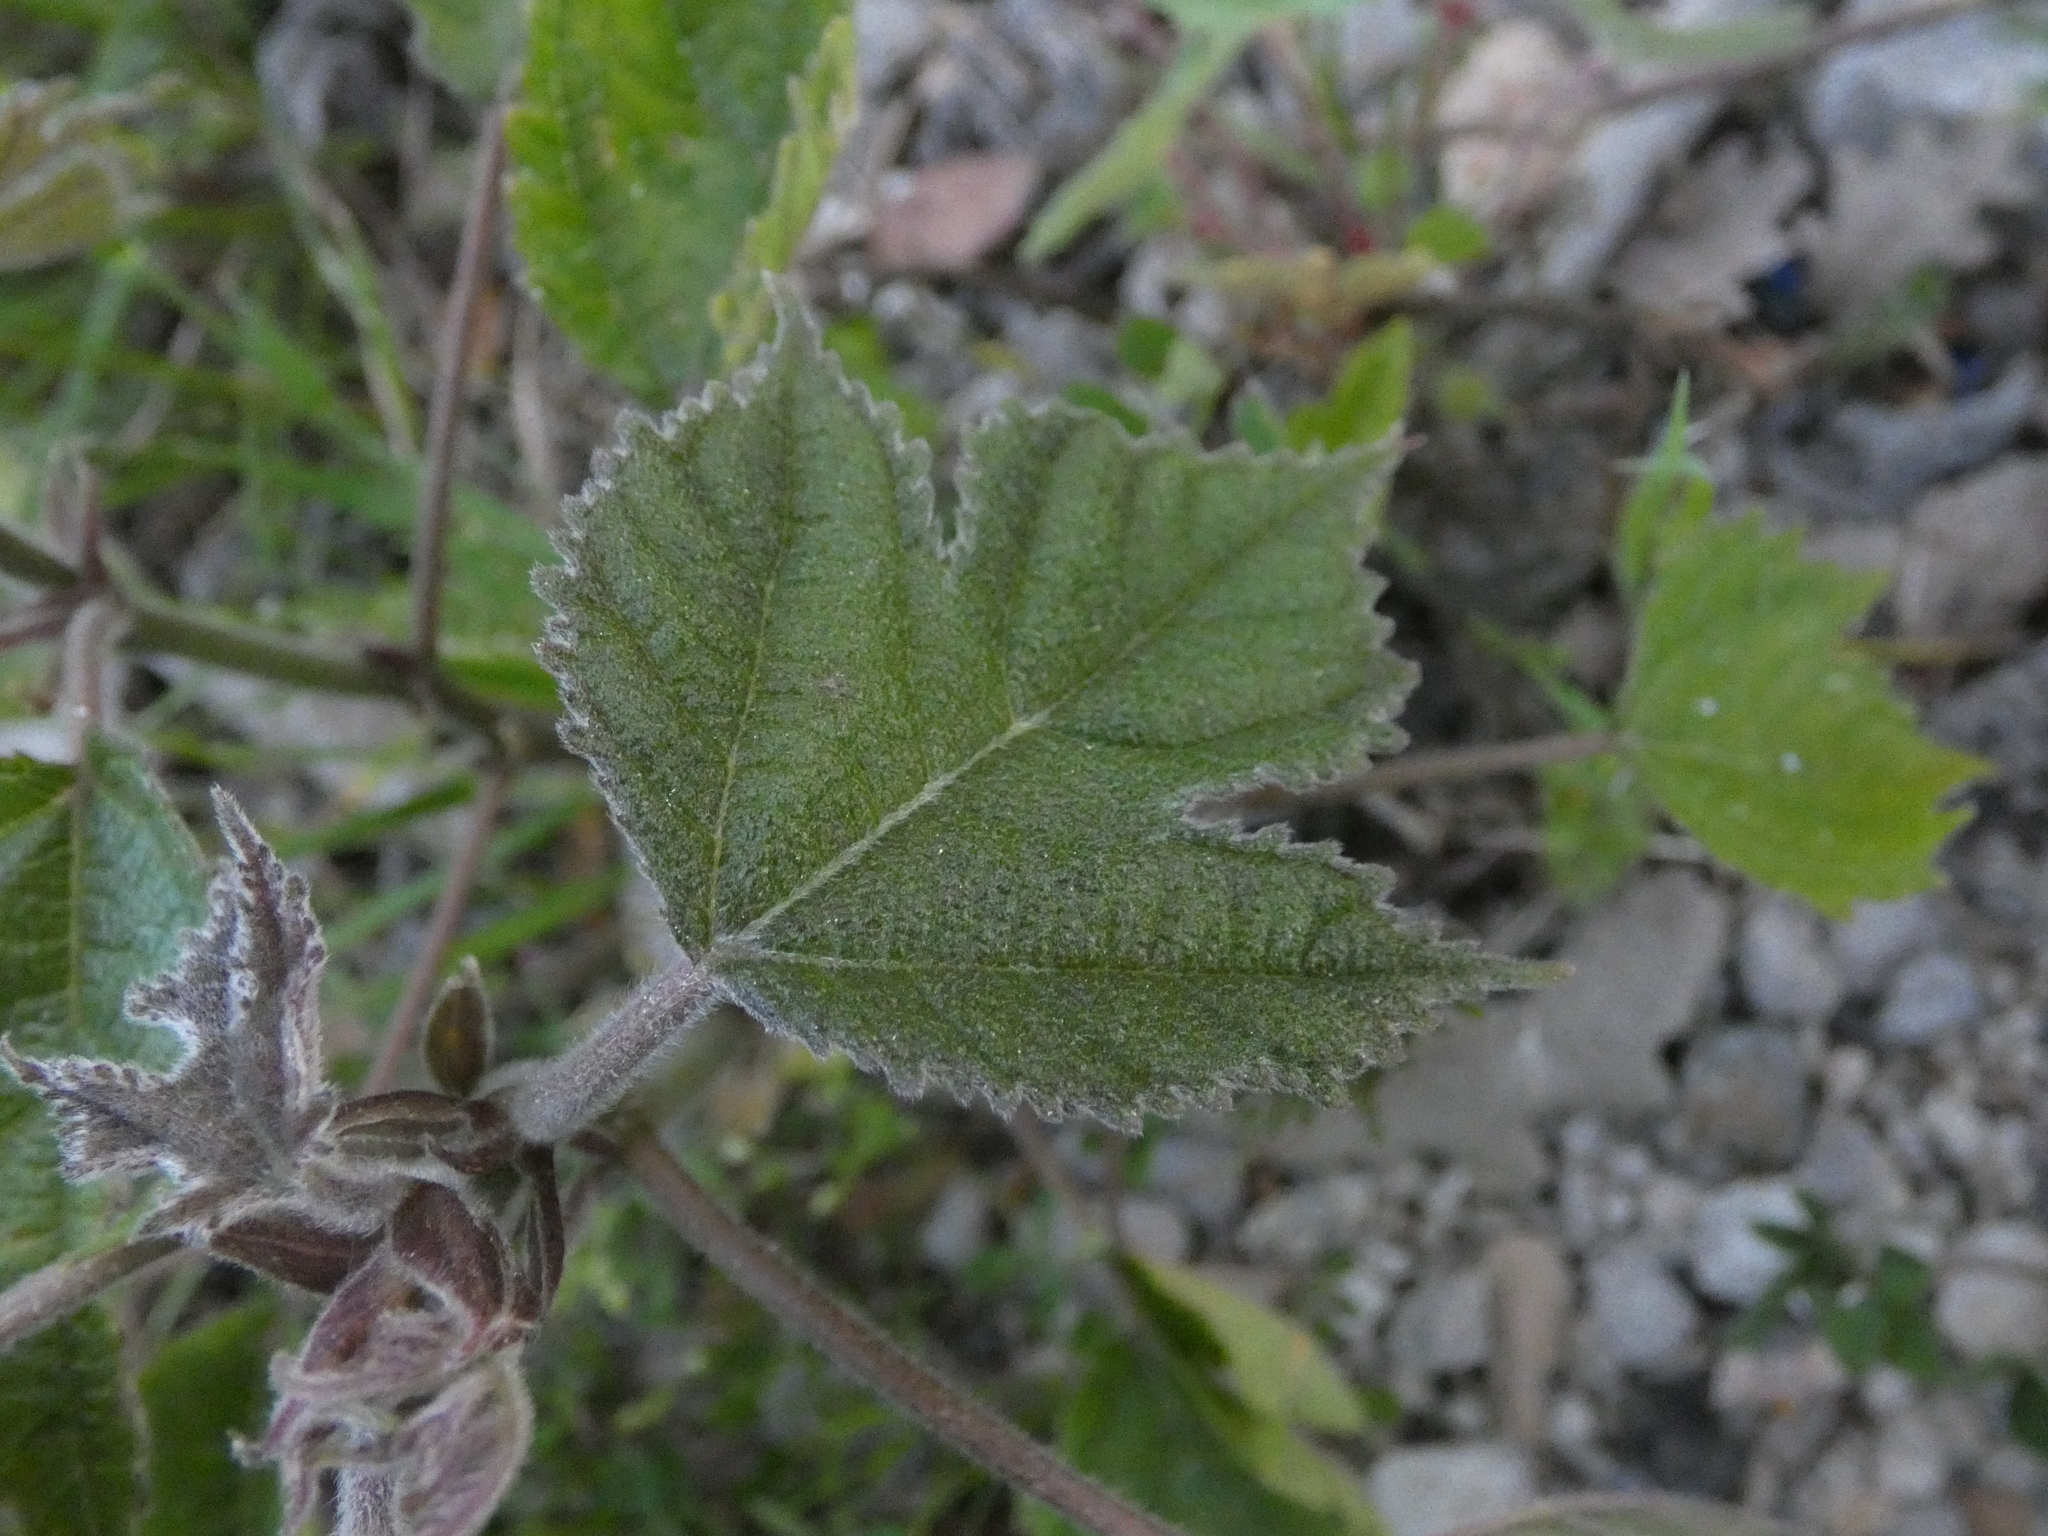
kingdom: Plantae
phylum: Tracheophyta
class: Magnoliopsida
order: Rosales
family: Moraceae
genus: Broussonetia
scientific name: Broussonetia papyrifera
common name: Paper mulberry
